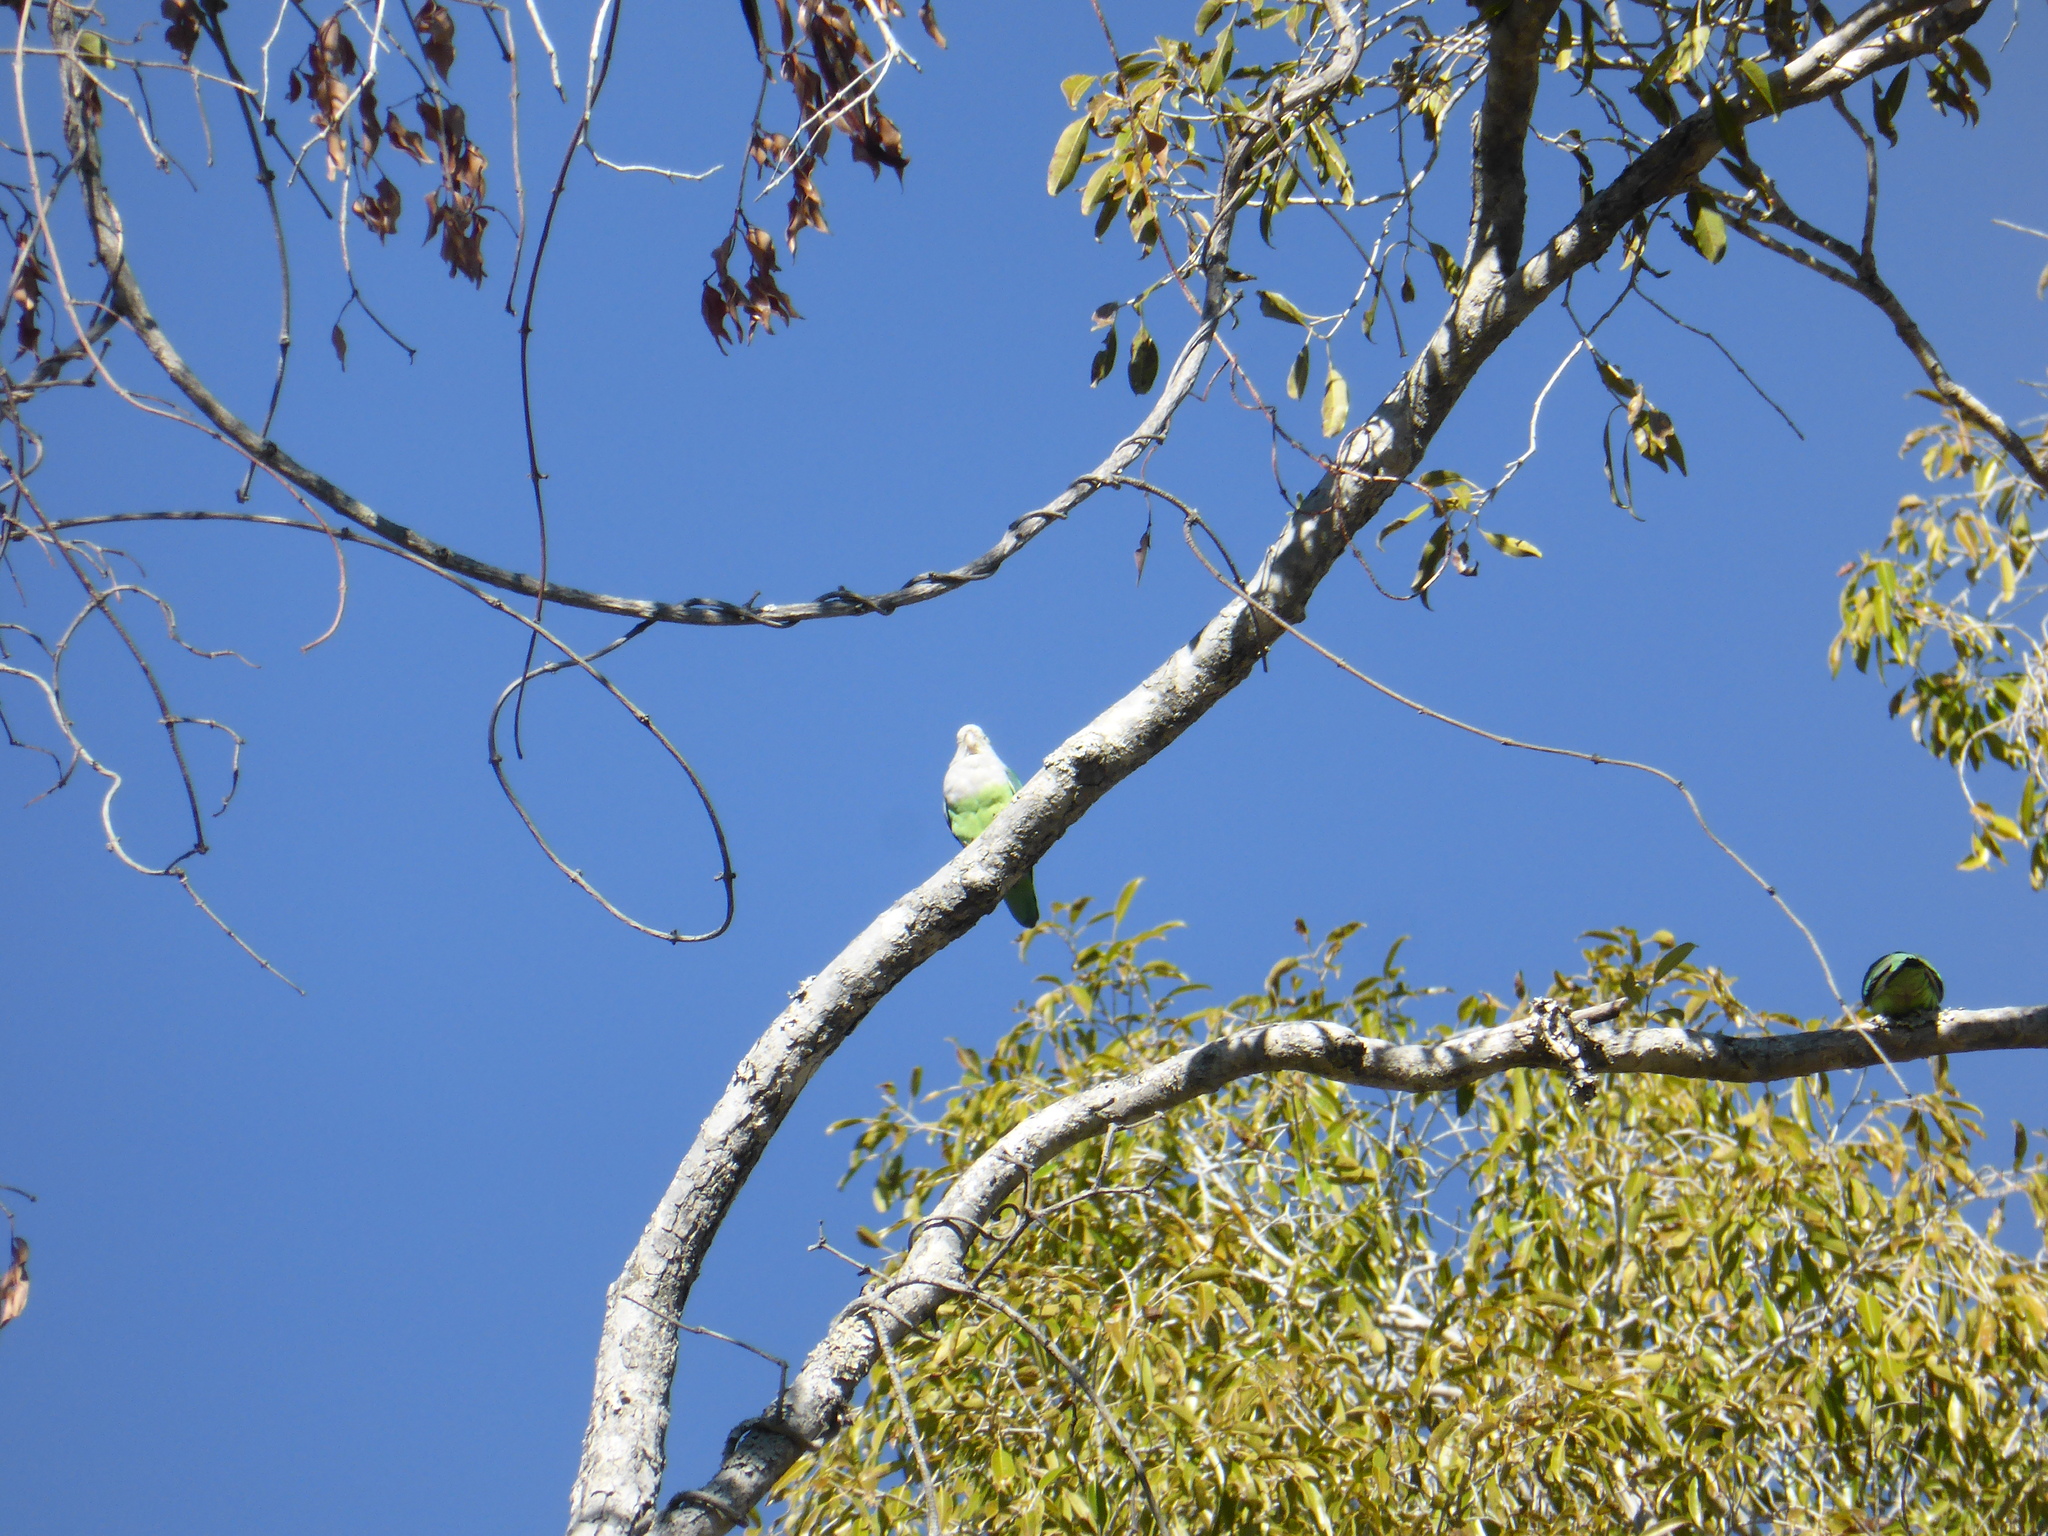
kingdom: Animalia
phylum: Chordata
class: Aves
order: Psittaciformes
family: Psittacidae
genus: Agapornis
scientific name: Agapornis canus
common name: Grey-headed lovebird
